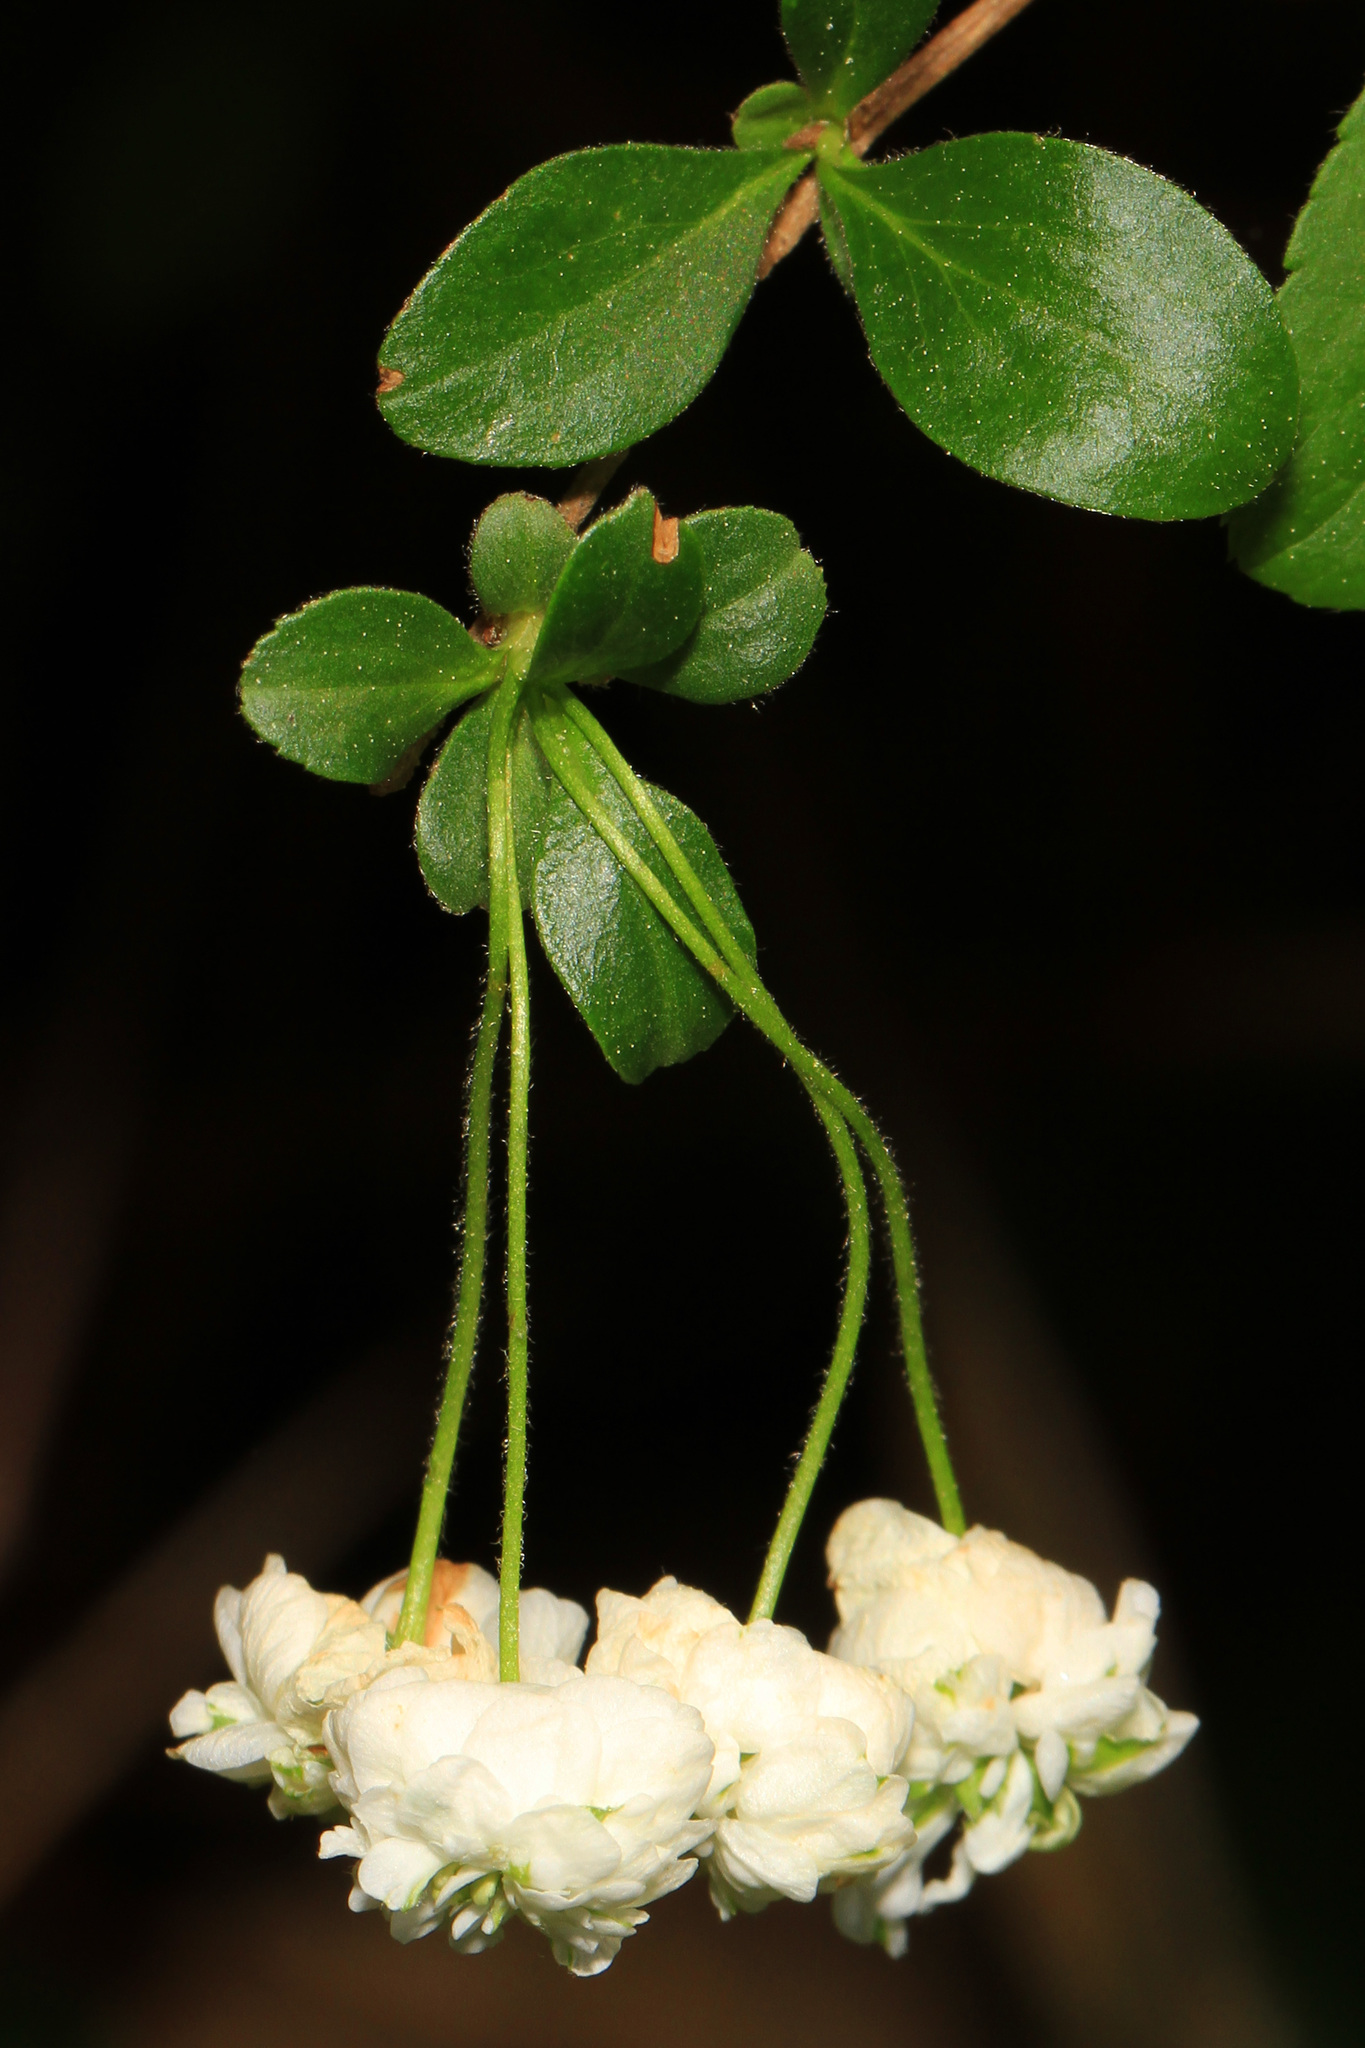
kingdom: Plantae
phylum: Tracheophyta
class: Magnoliopsida
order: Rosales
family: Rosaceae
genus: Spiraea
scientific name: Spiraea prunifolia
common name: Bridal-wreath spiraea
